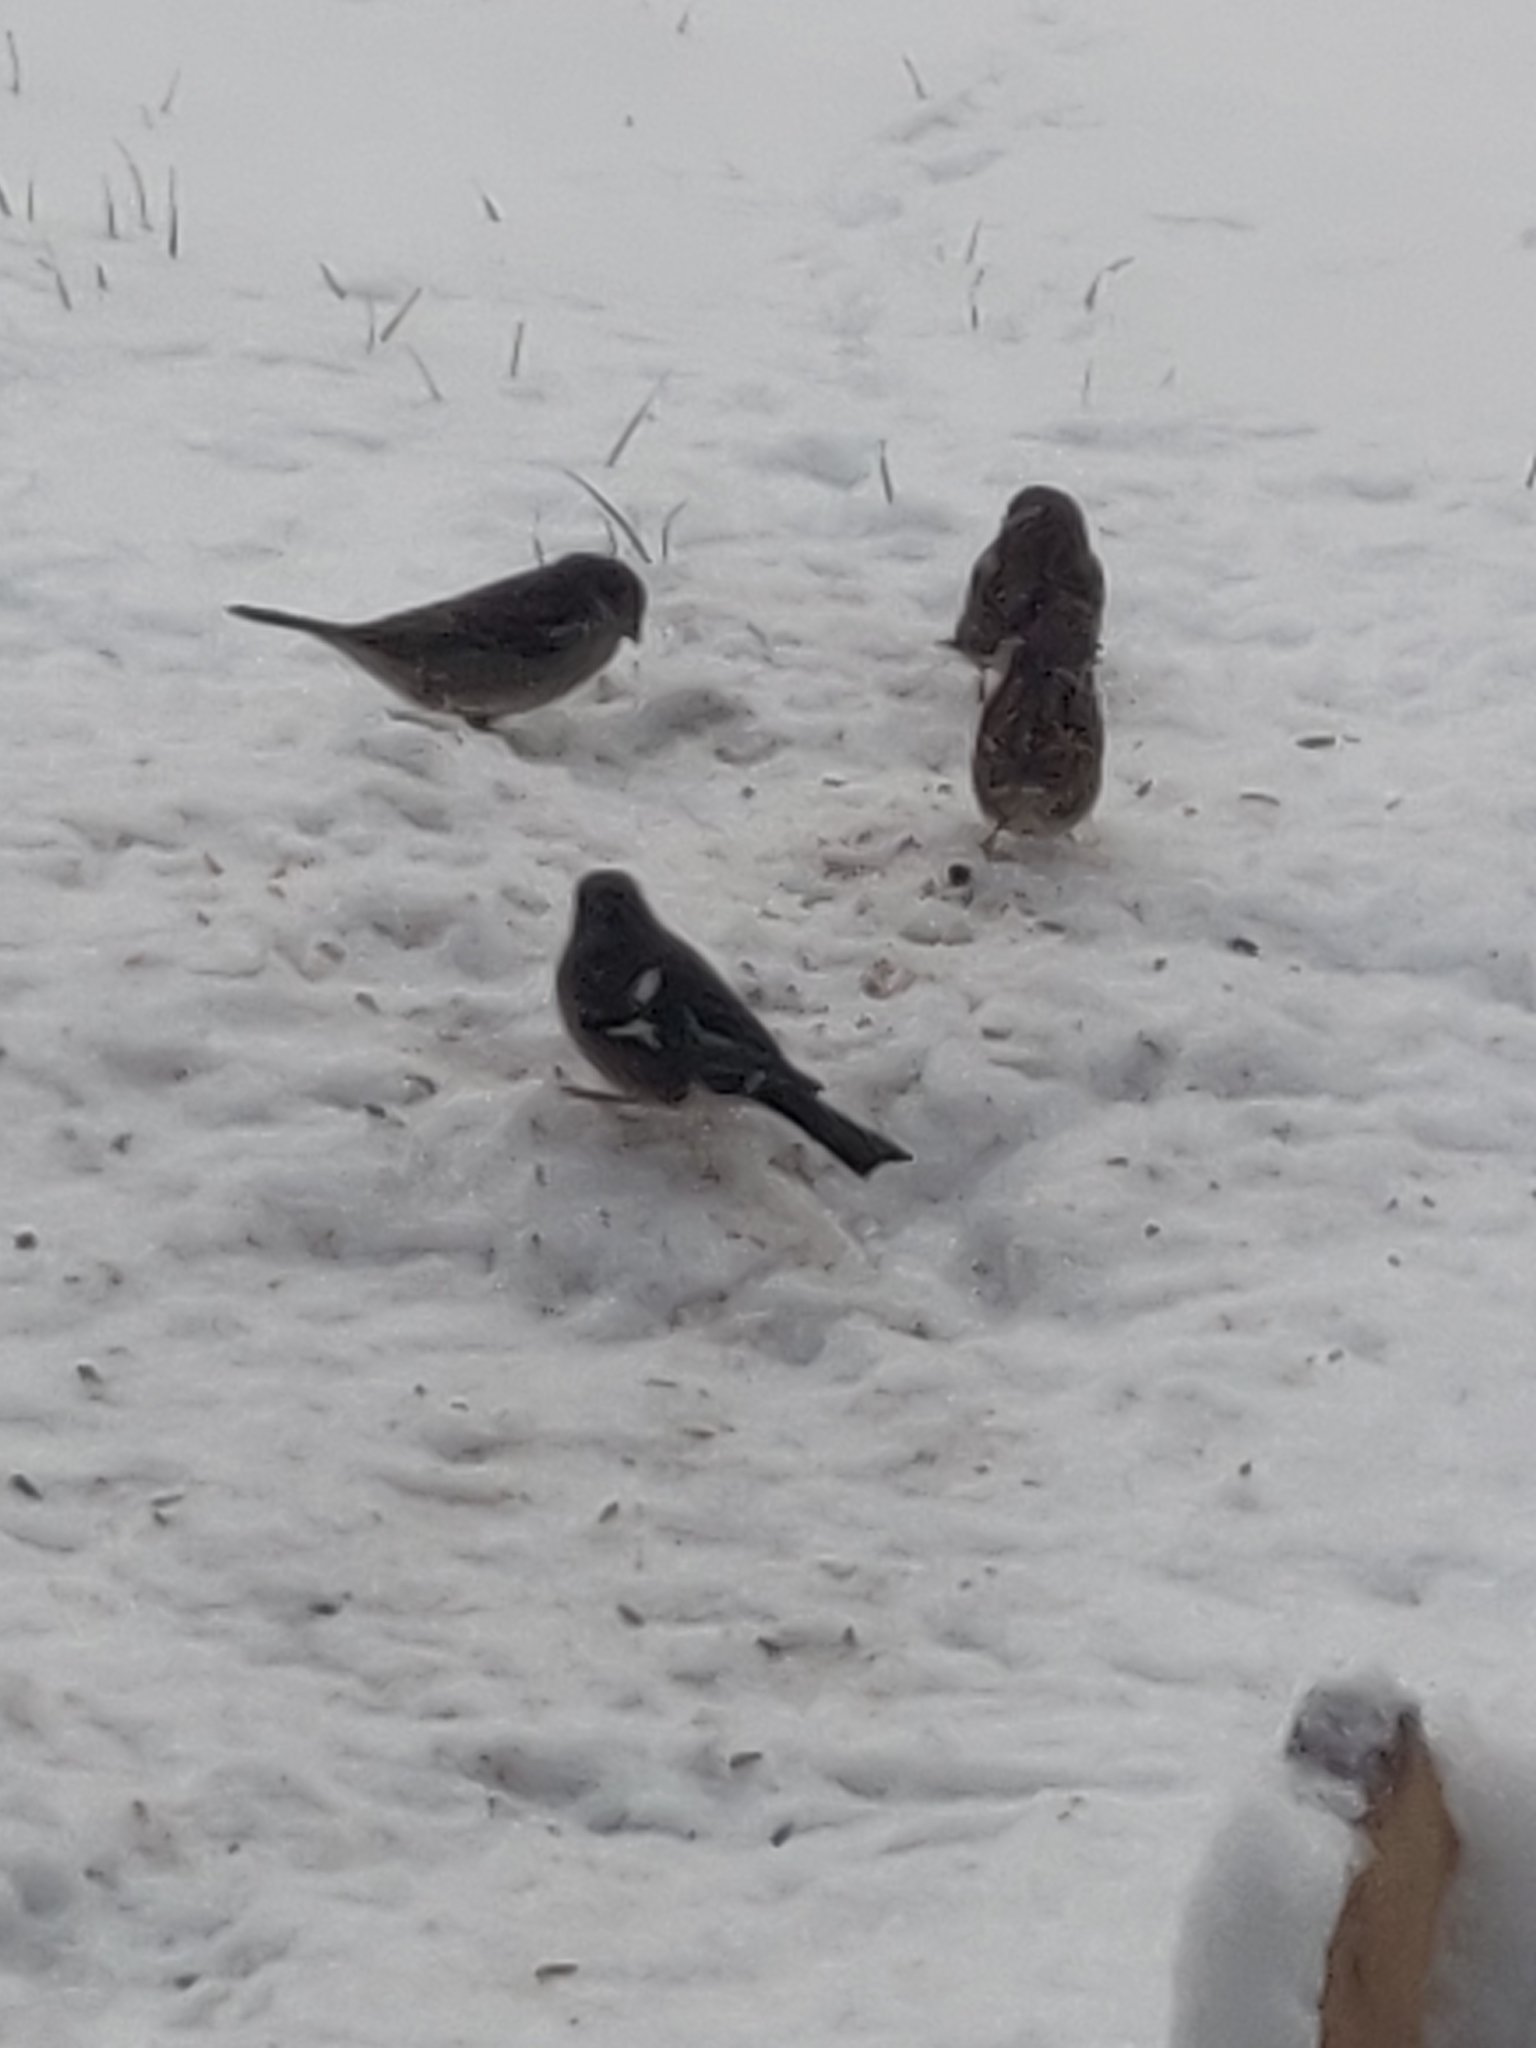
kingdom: Animalia
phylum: Chordata
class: Aves
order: Passeriformes
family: Fringillidae
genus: Fringilla
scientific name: Fringilla coelebs
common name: Common chaffinch
